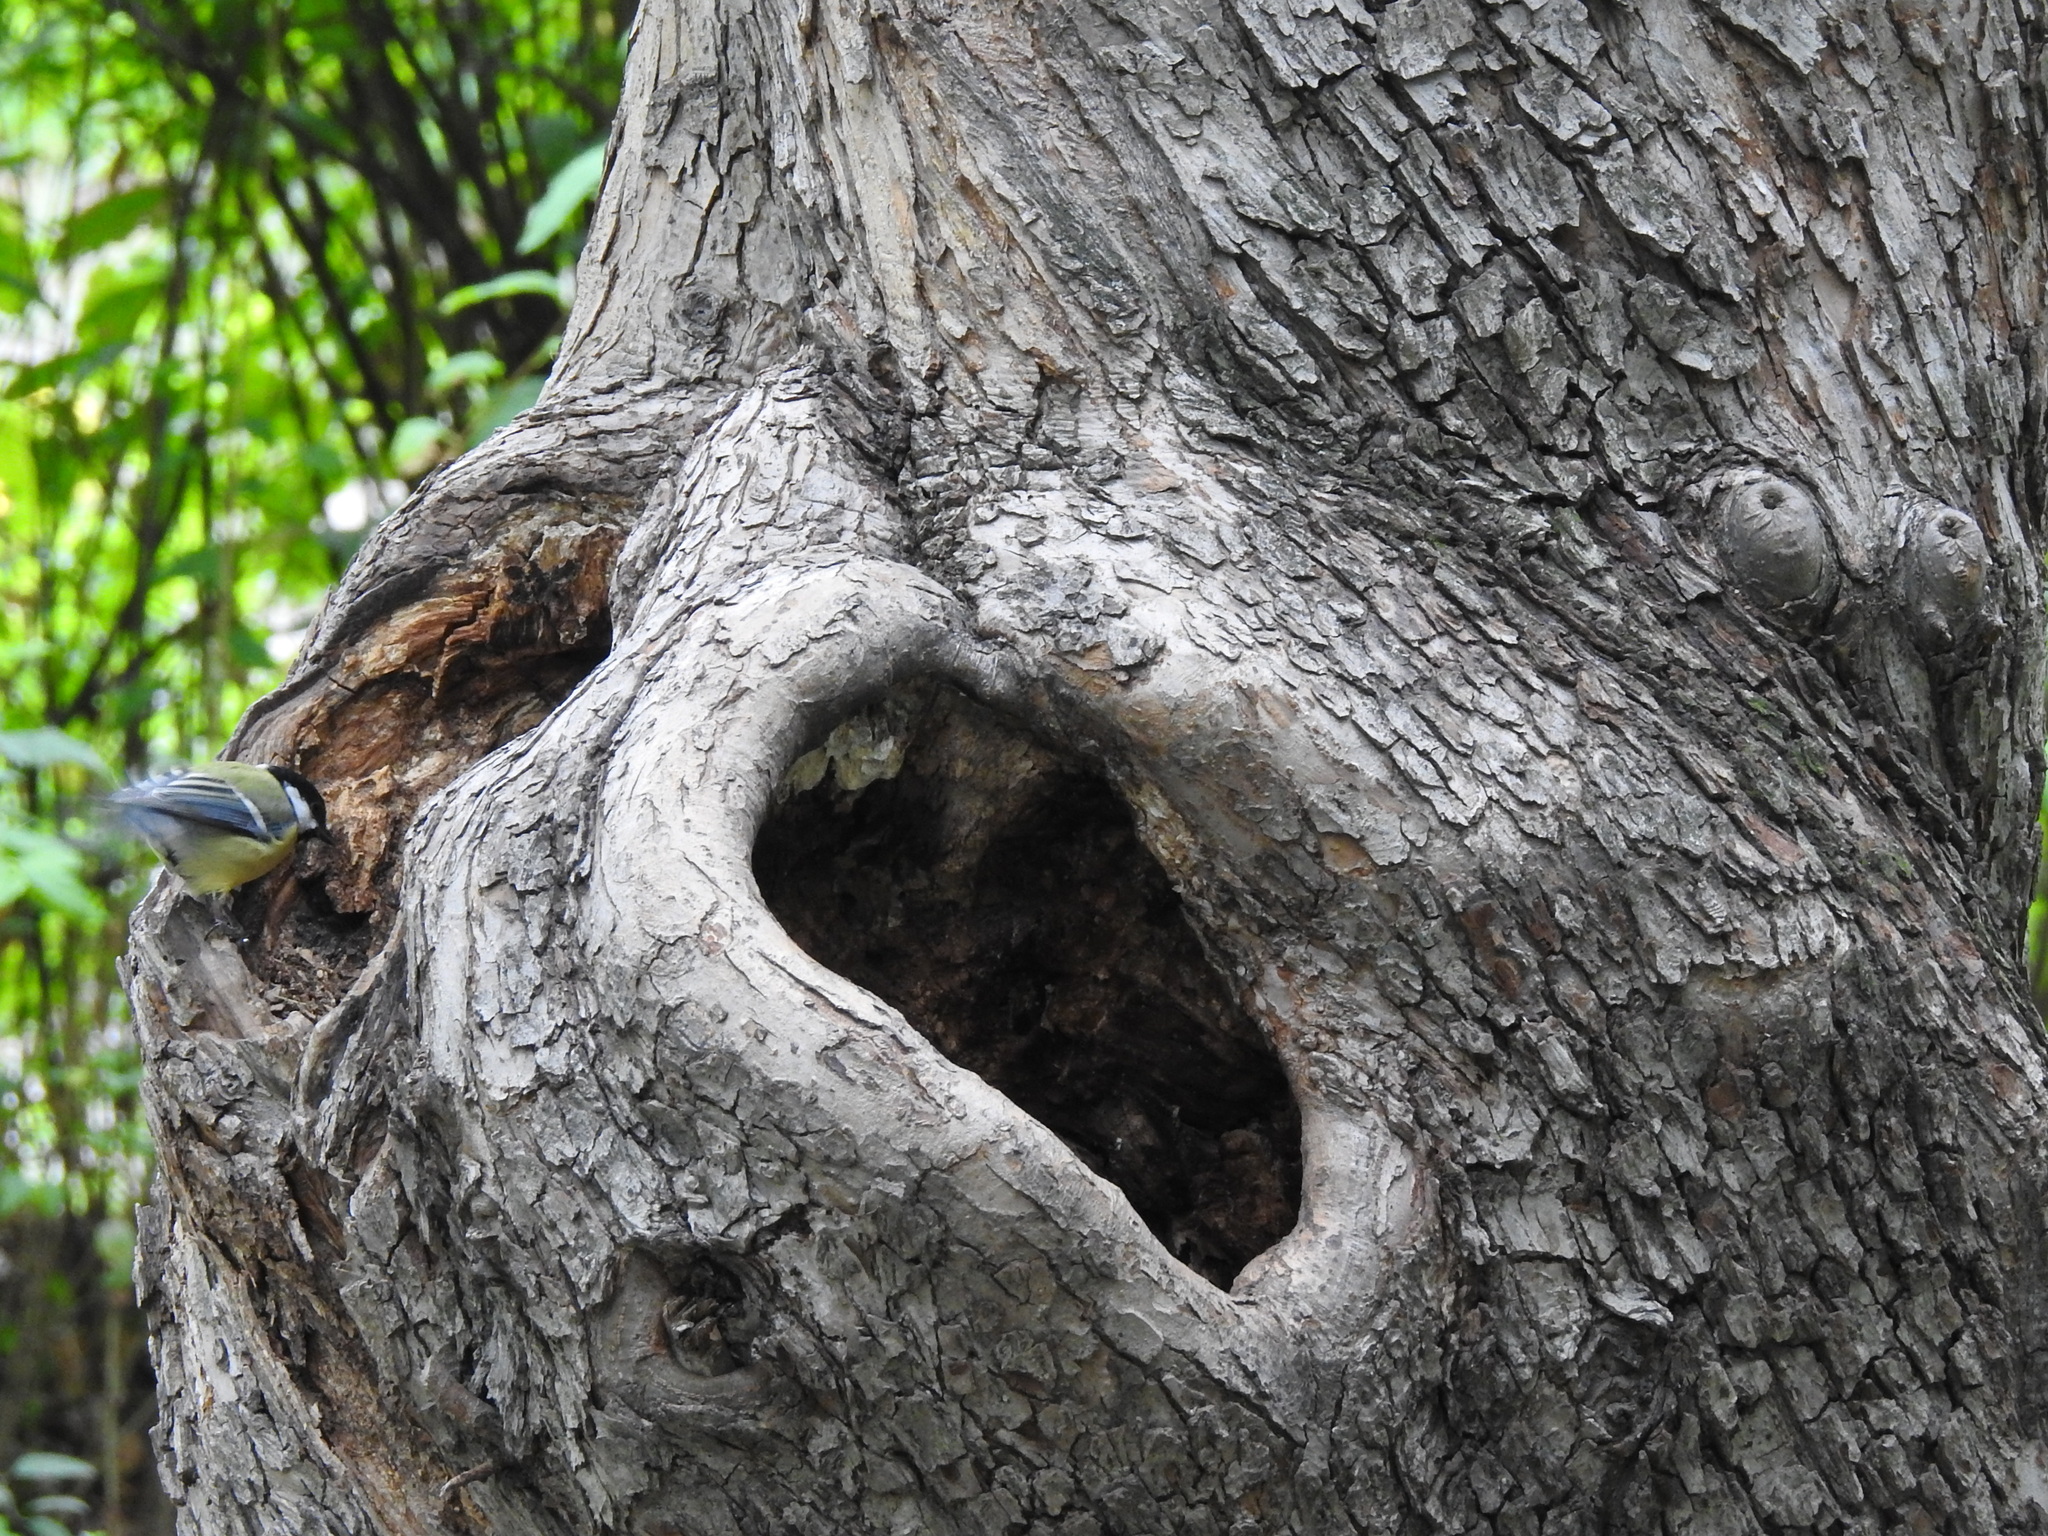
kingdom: Animalia
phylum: Chordata
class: Aves
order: Passeriformes
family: Paridae
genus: Parus
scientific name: Parus major
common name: Great tit
